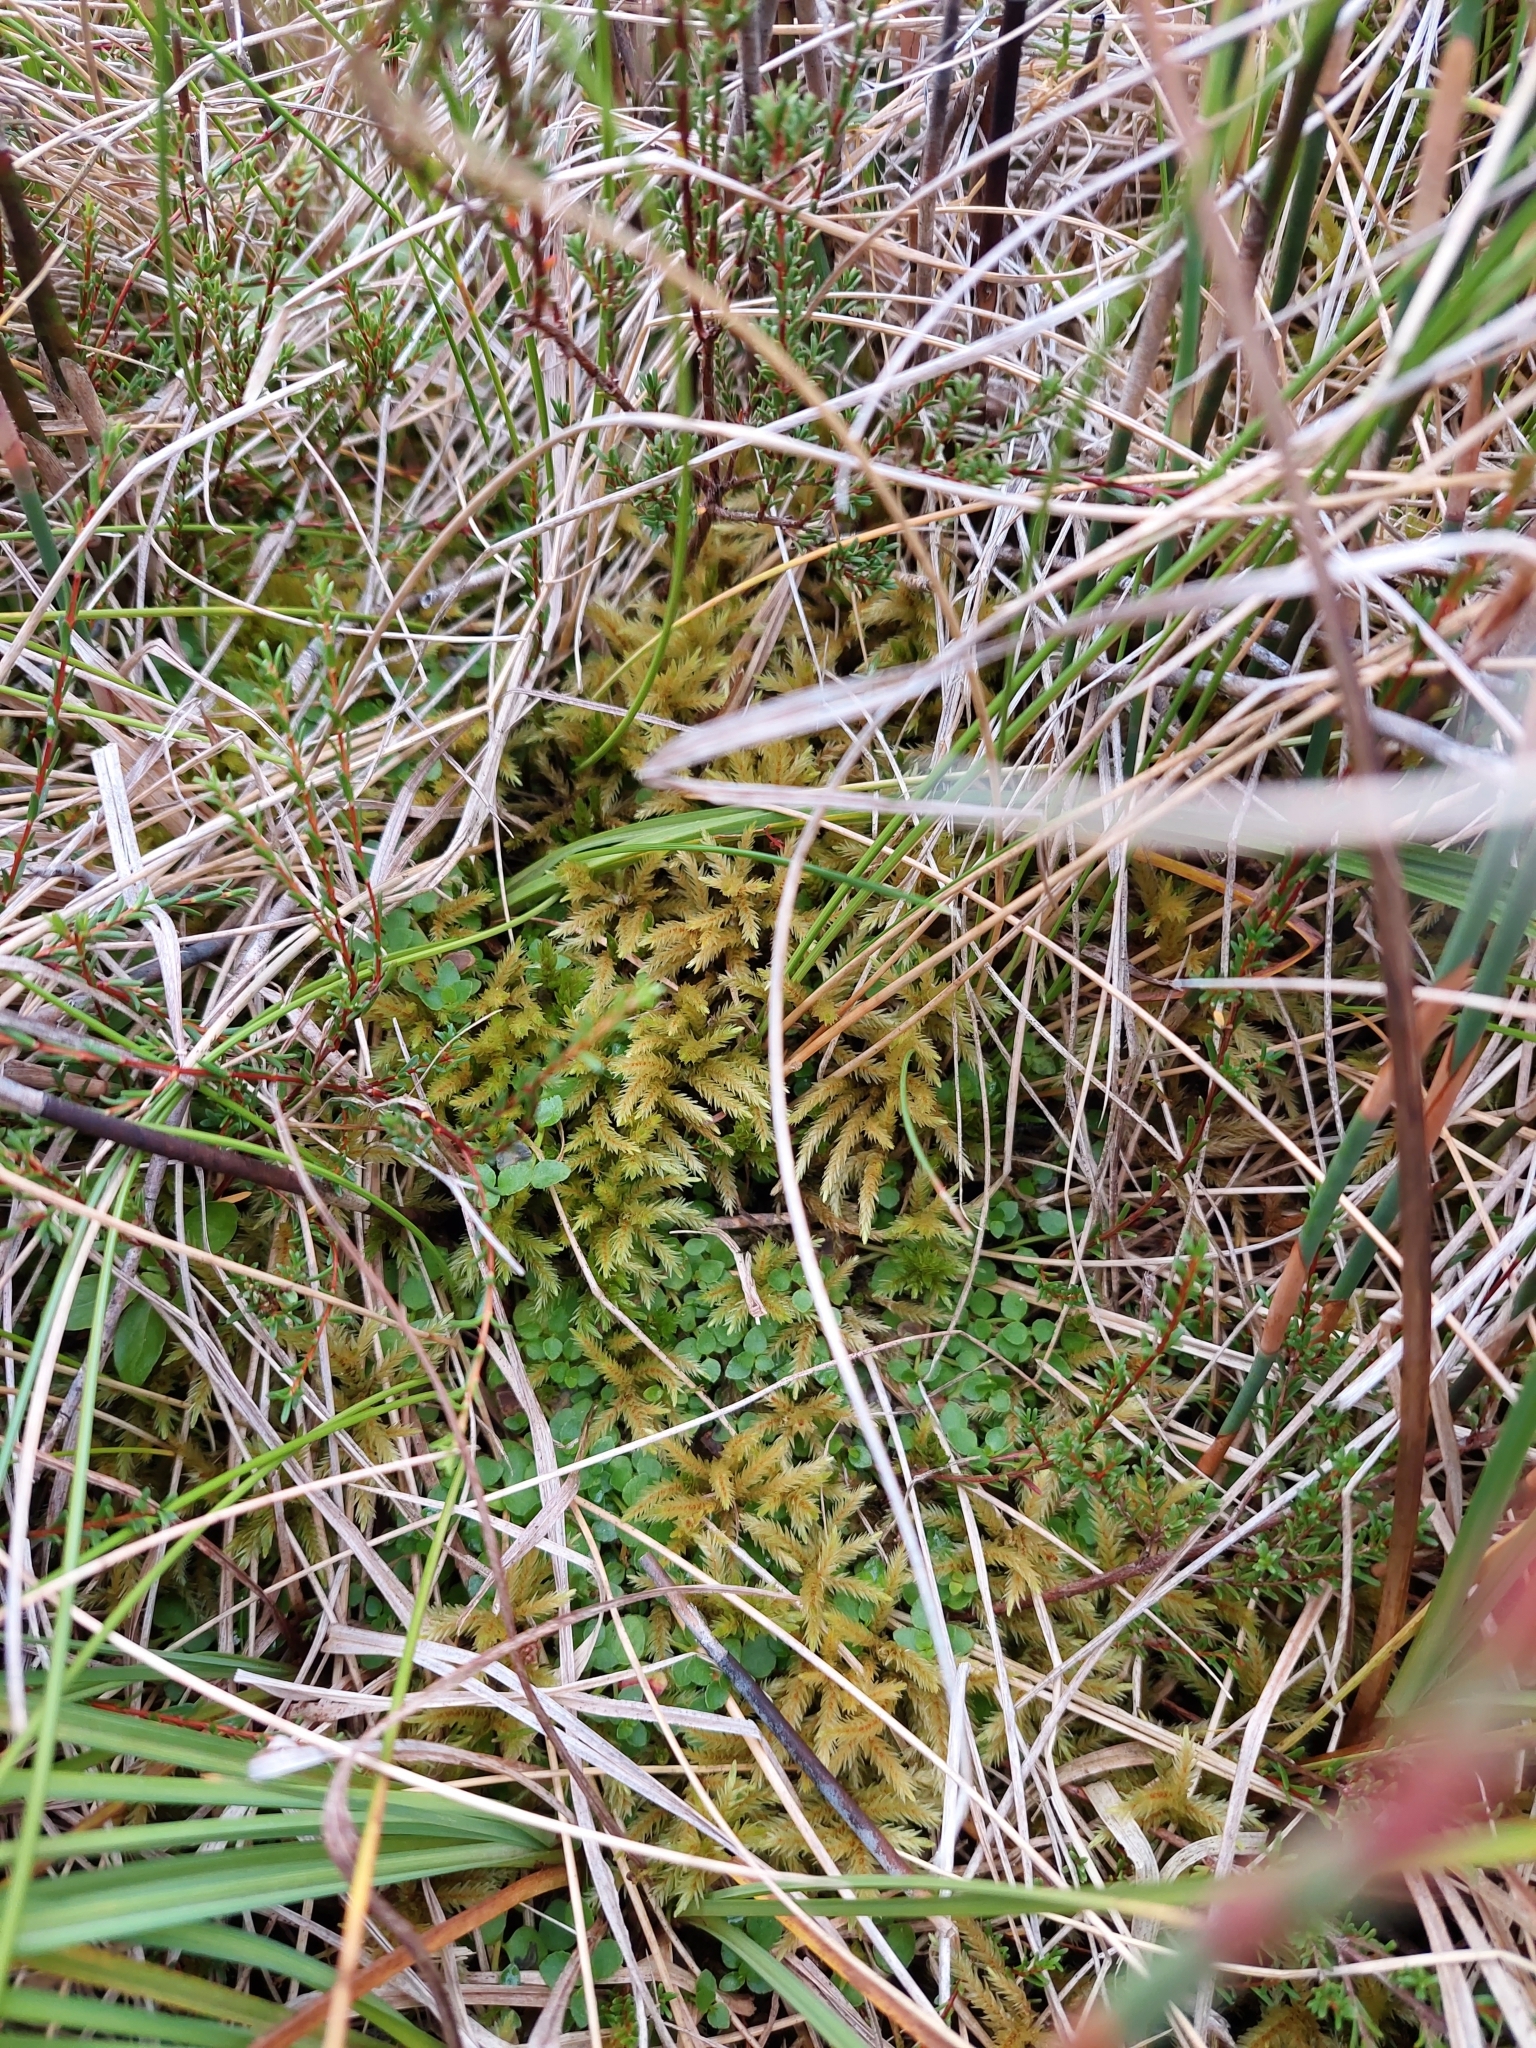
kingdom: Plantae
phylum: Bryophyta
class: Bryopsida
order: Hypnales
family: Climaciaceae
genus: Climacium
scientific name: Climacium dendroides
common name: Northern tree moss
